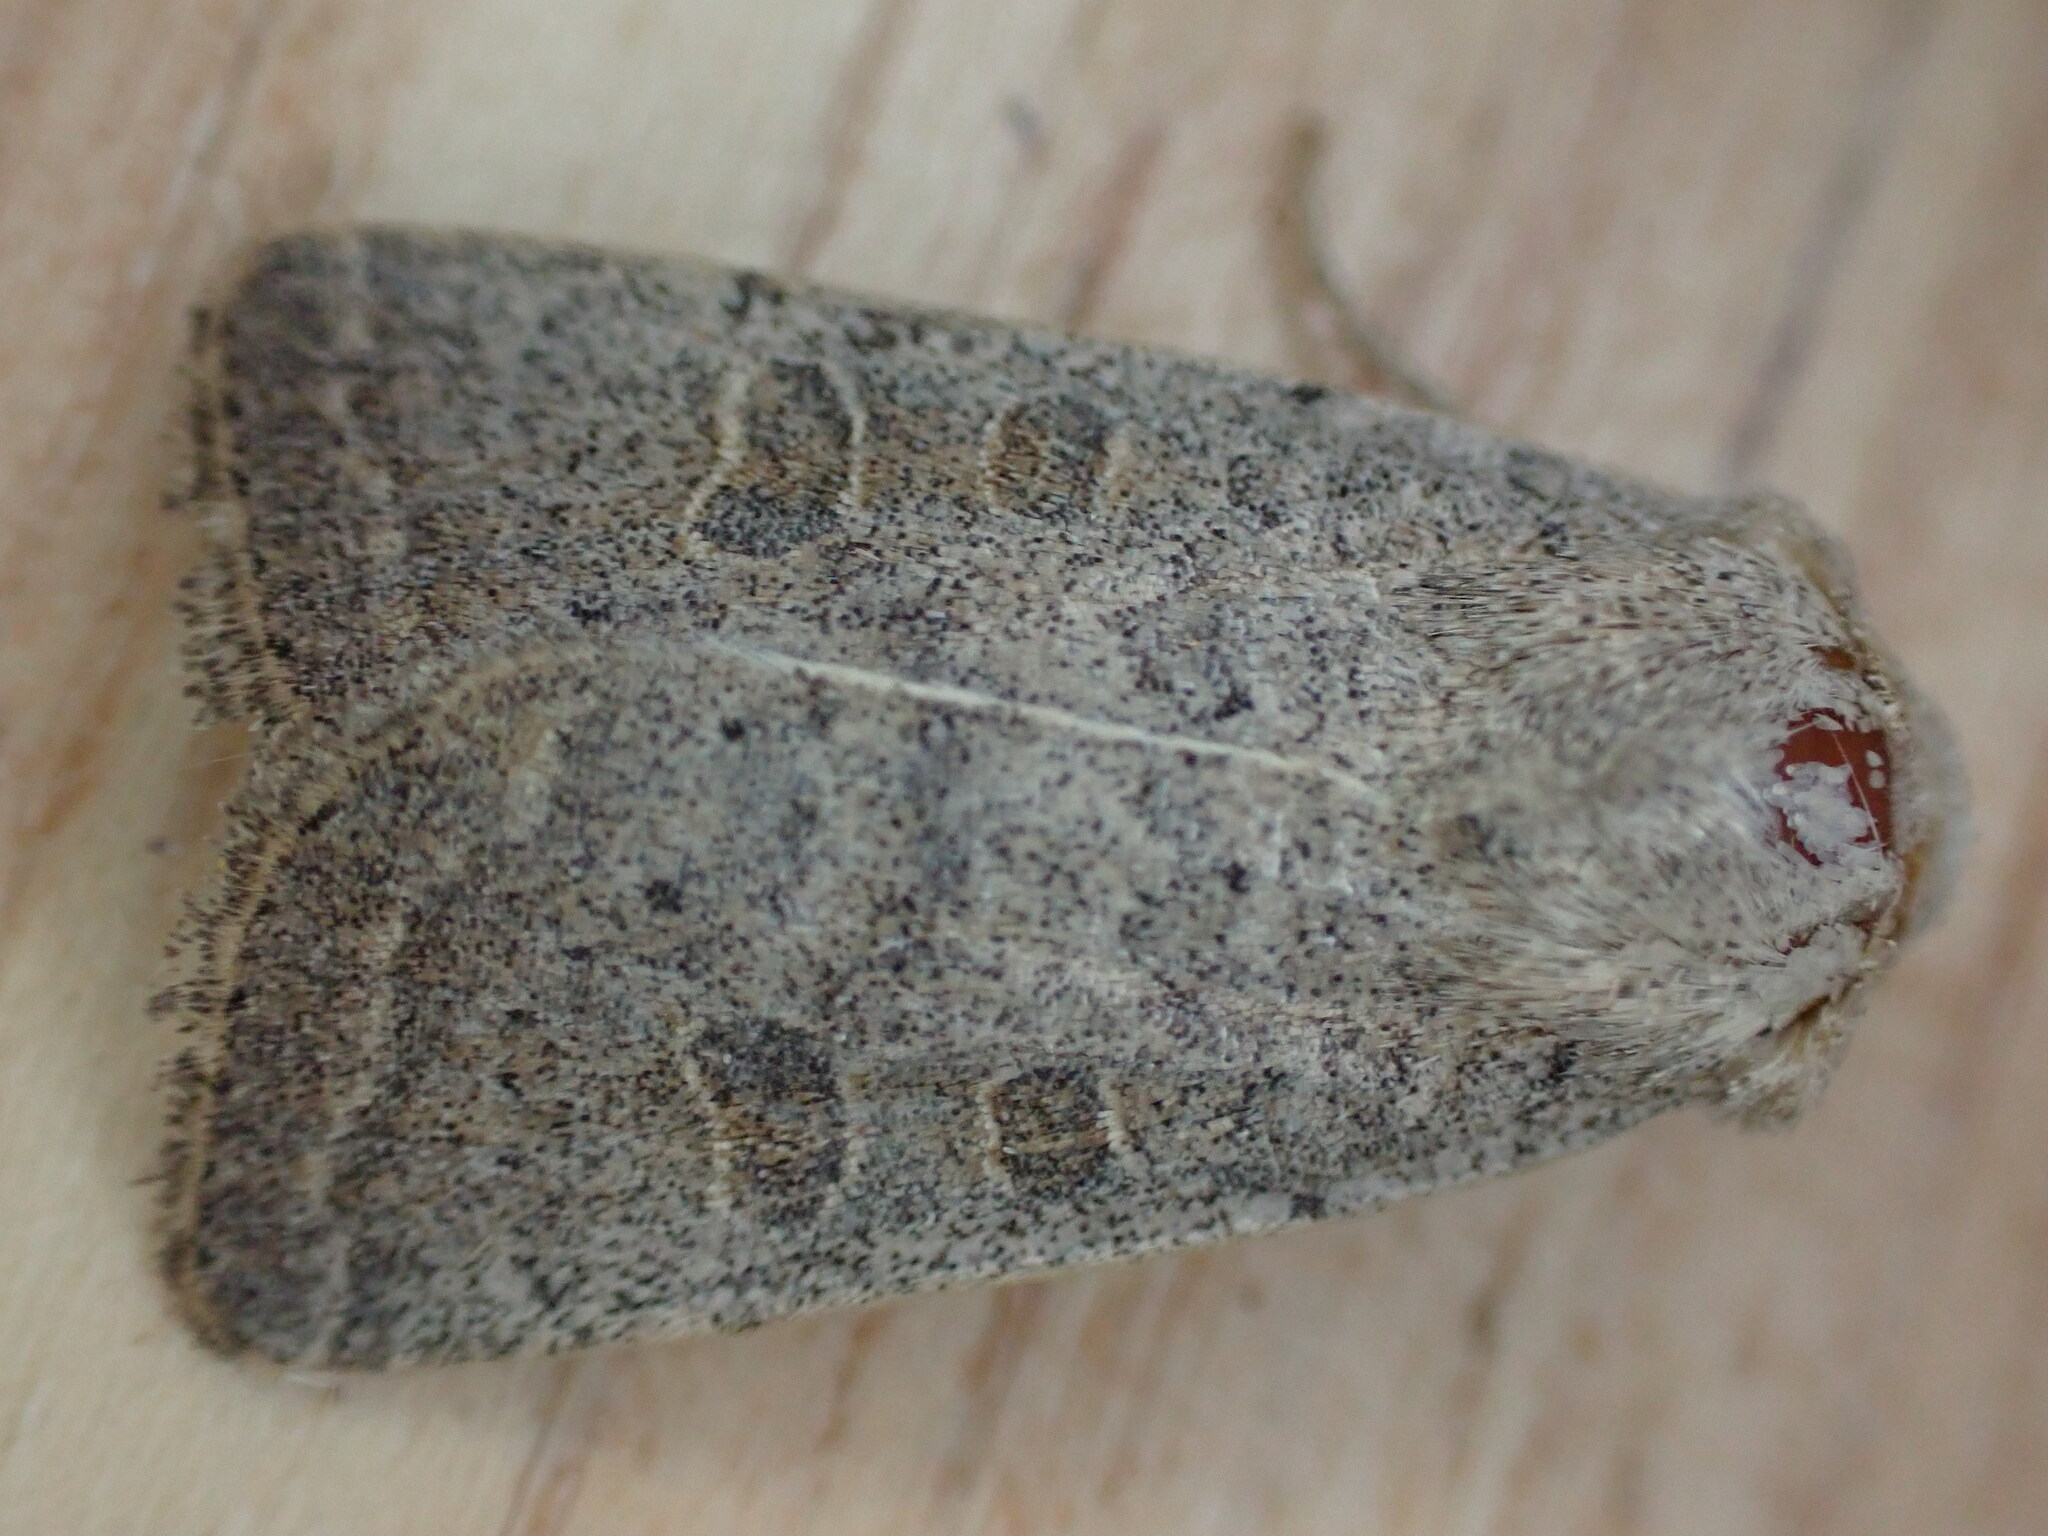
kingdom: Animalia
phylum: Arthropoda
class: Insecta
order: Lepidoptera
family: Noctuidae
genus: Hoplodrina
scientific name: Hoplodrina ambigua
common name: Vine's rustic
